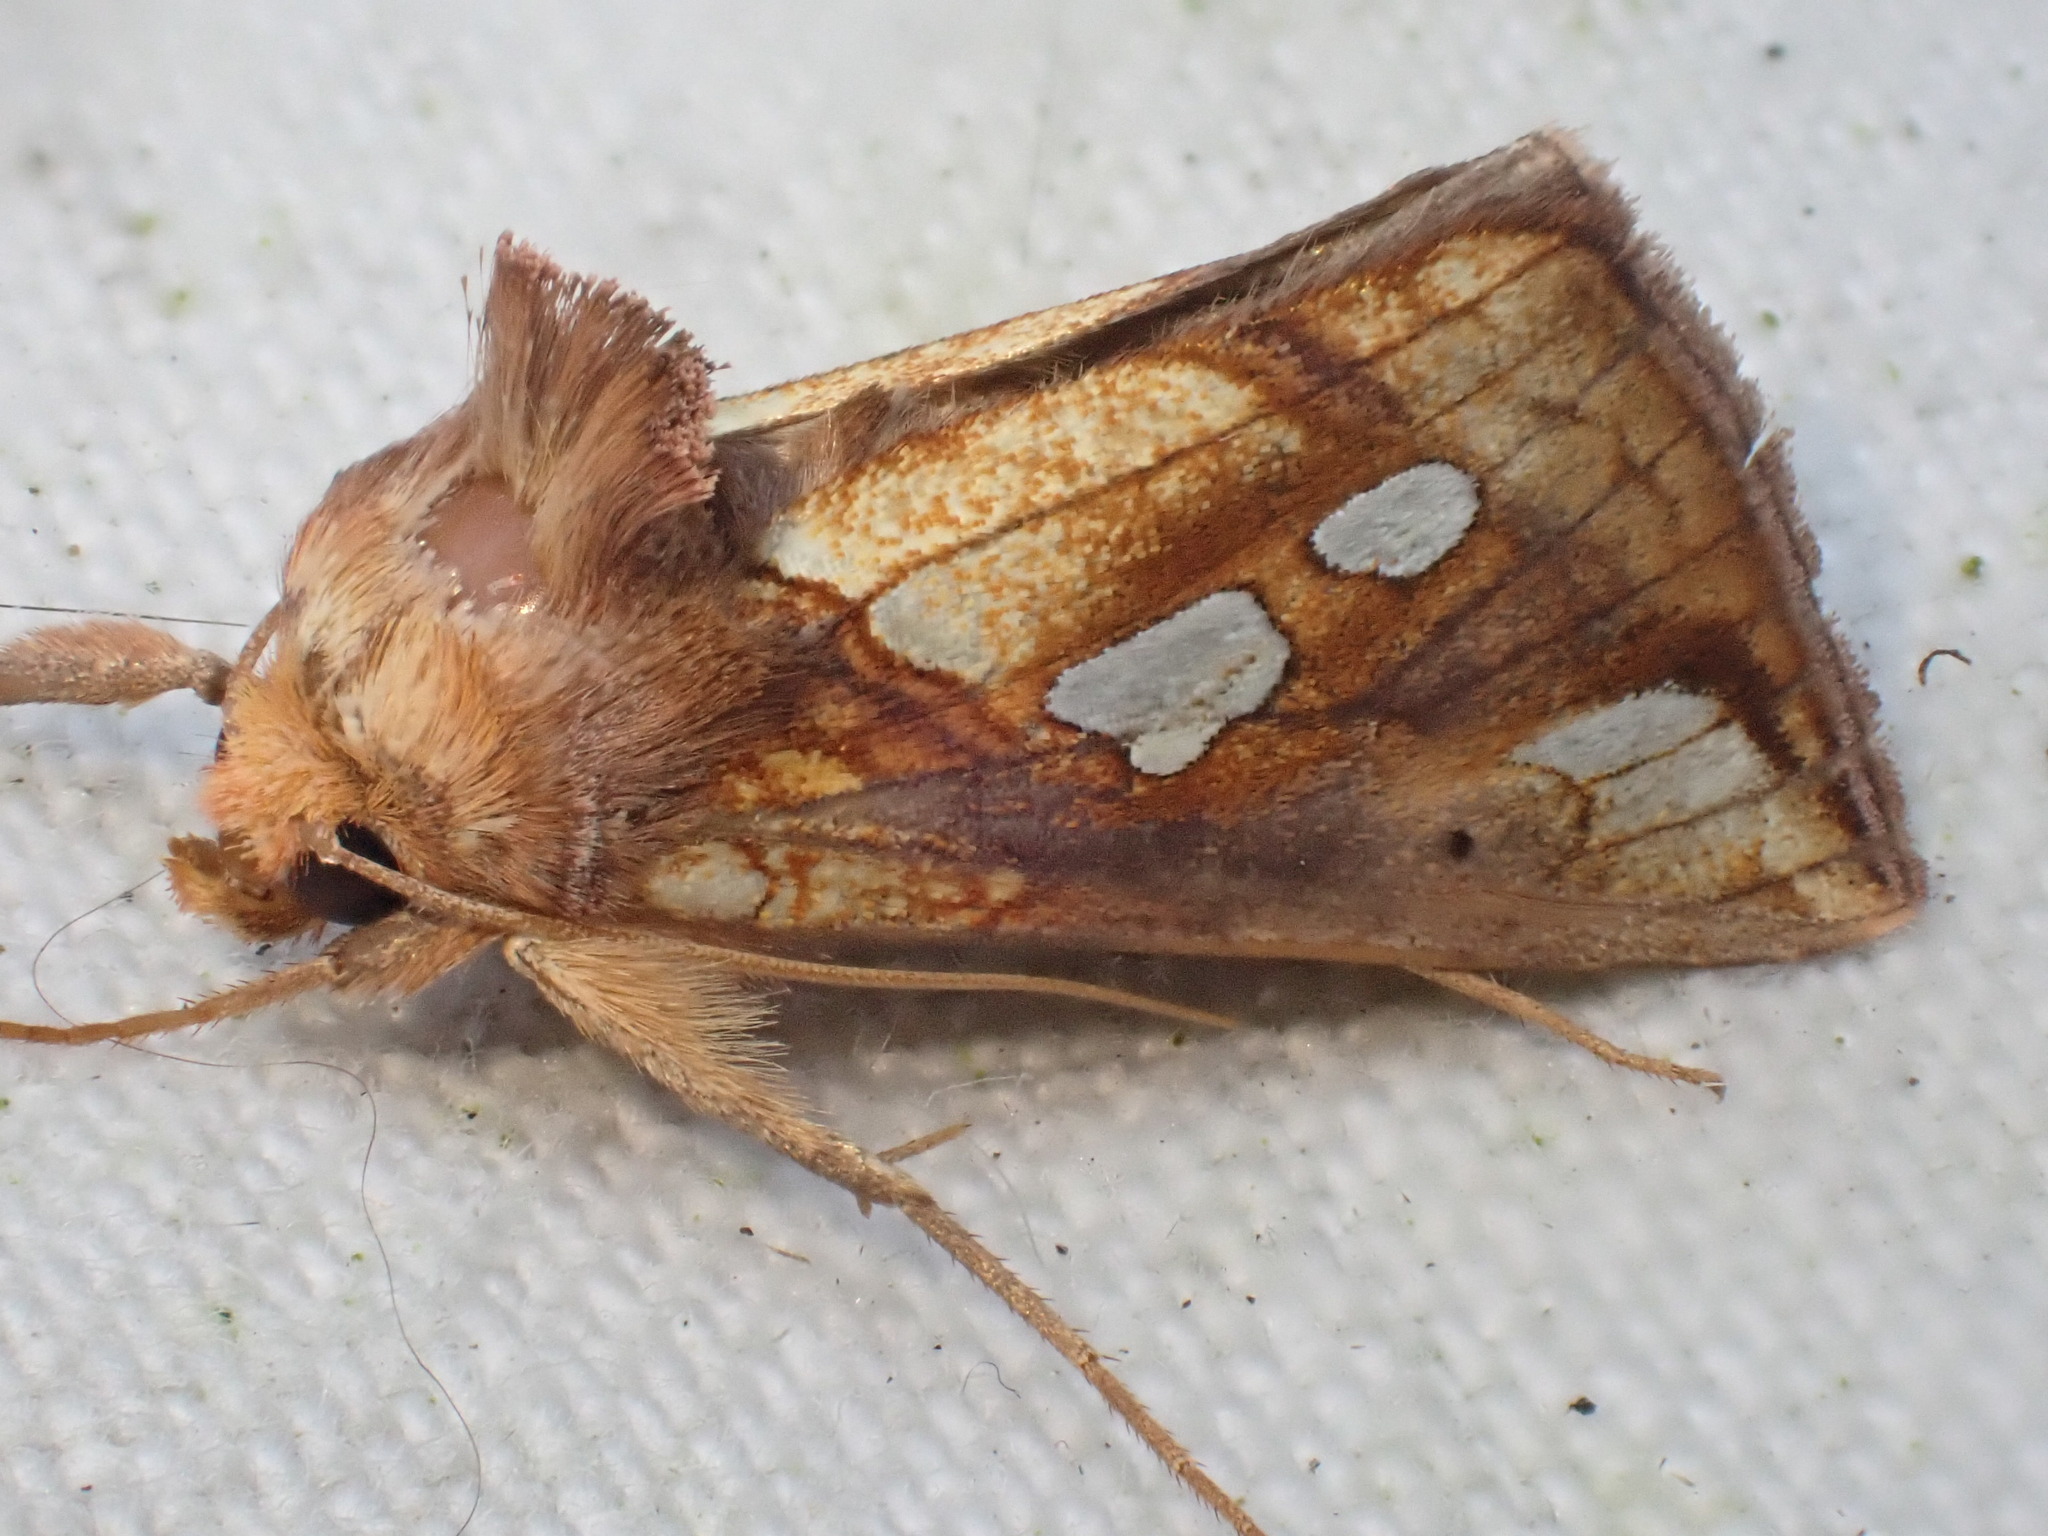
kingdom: Animalia
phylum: Arthropoda
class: Insecta
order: Lepidoptera
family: Noctuidae
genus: Plusia
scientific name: Plusia festucae
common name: Gold spot
